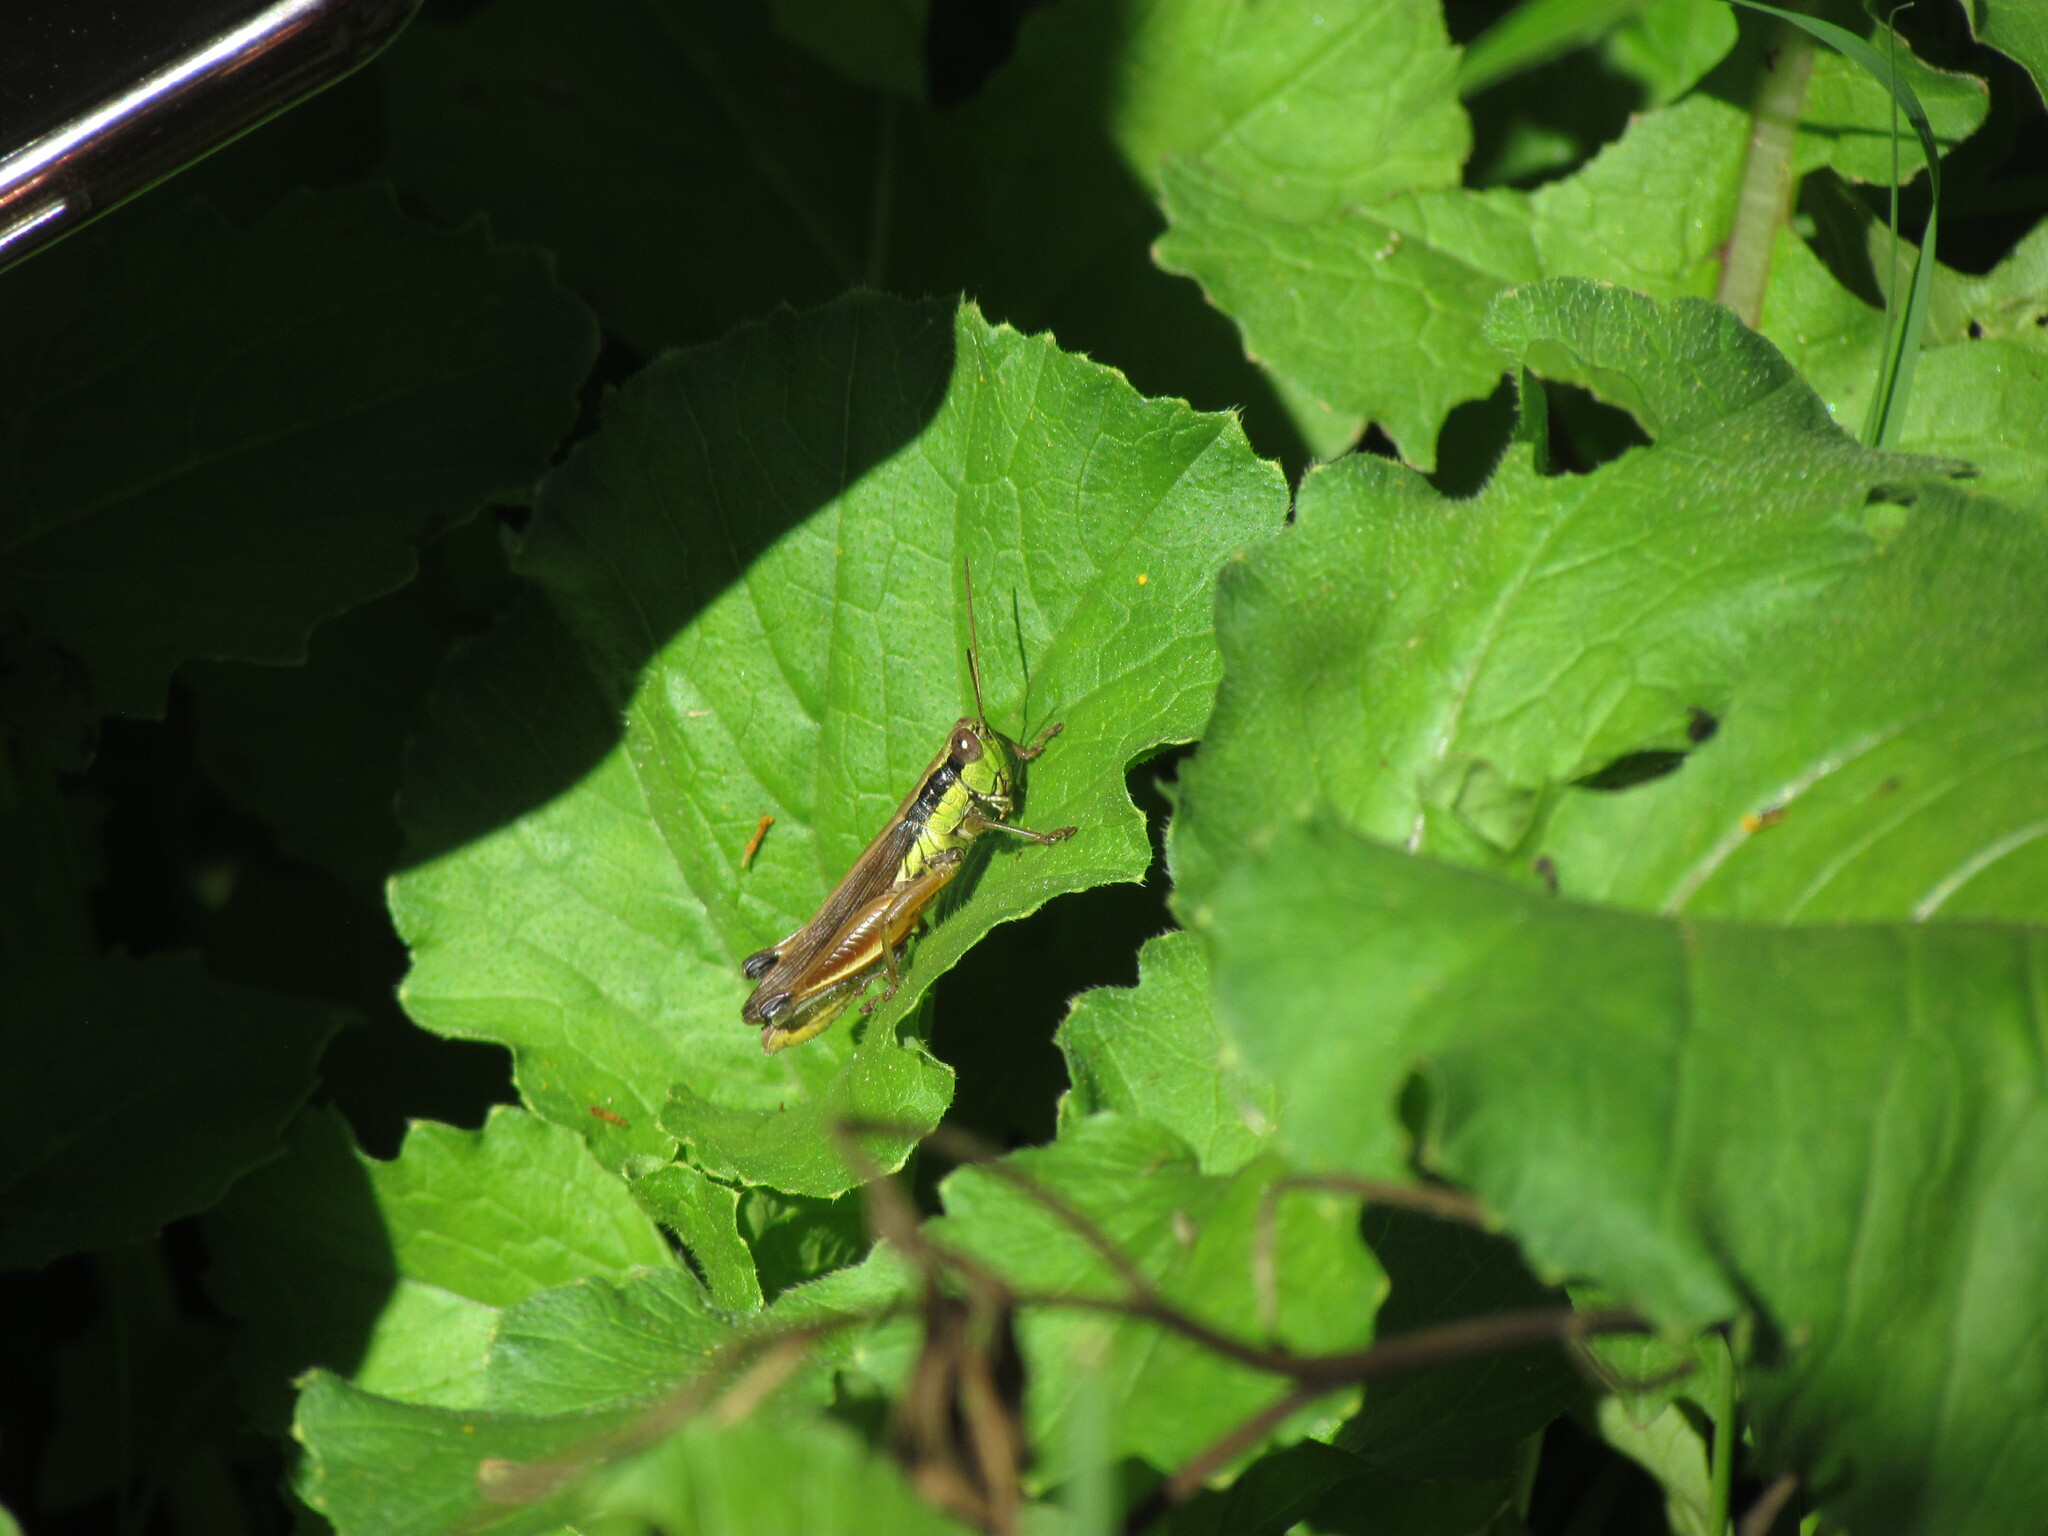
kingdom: Animalia
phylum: Arthropoda
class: Insecta
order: Orthoptera
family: Acrididae
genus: Scotussa
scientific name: Scotussa impudica
